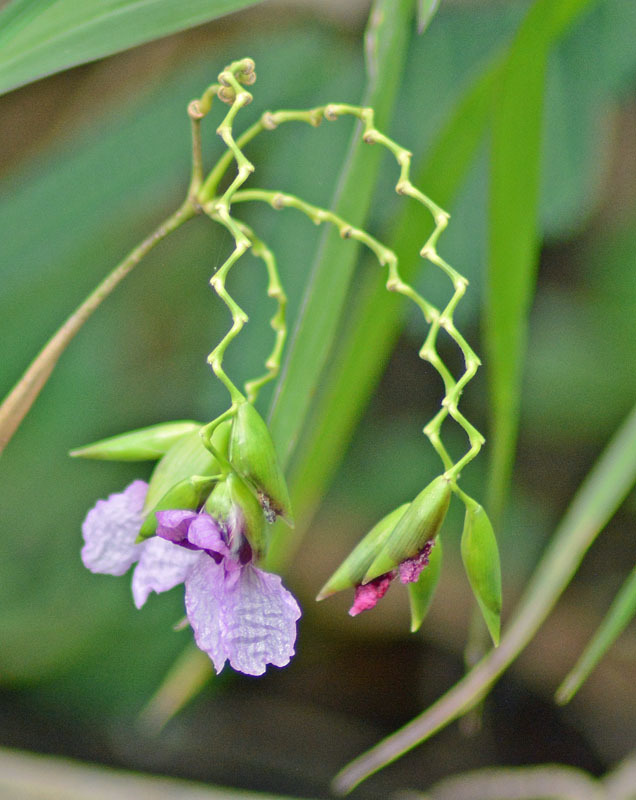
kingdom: Plantae
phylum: Tracheophyta
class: Liliopsida
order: Zingiberales
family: Marantaceae
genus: Thalia
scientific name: Thalia geniculata
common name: Arrowroot
